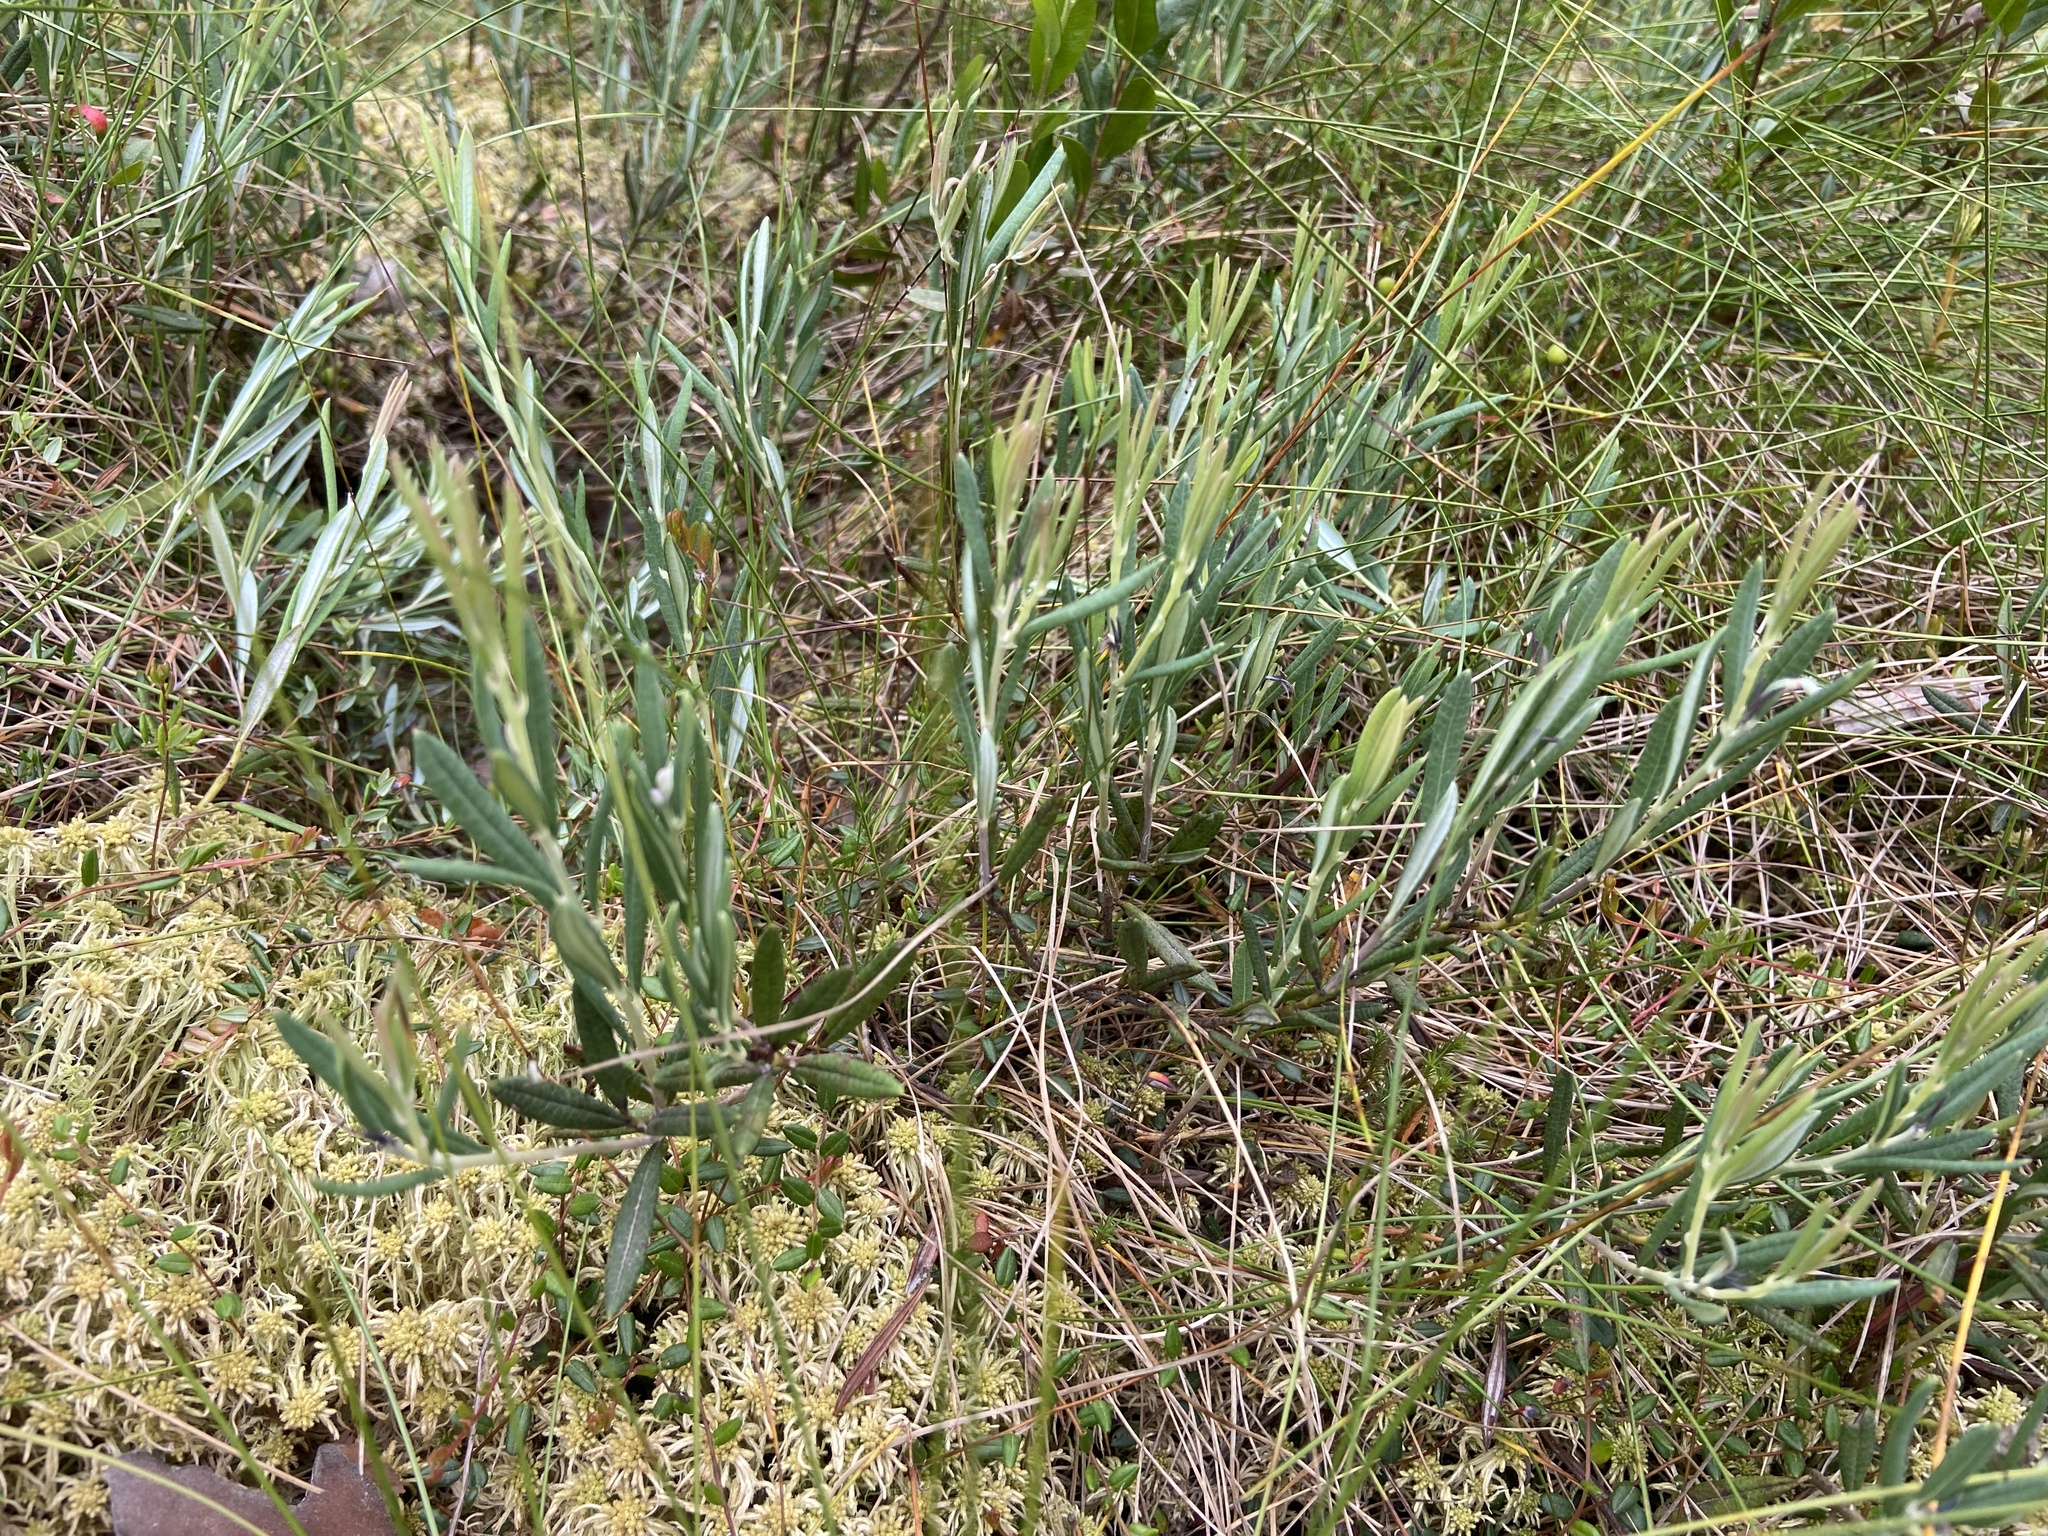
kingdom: Plantae
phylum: Tracheophyta
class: Magnoliopsida
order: Ericales
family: Ericaceae
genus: Andromeda
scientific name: Andromeda polifolia
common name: Bog-rosemary
